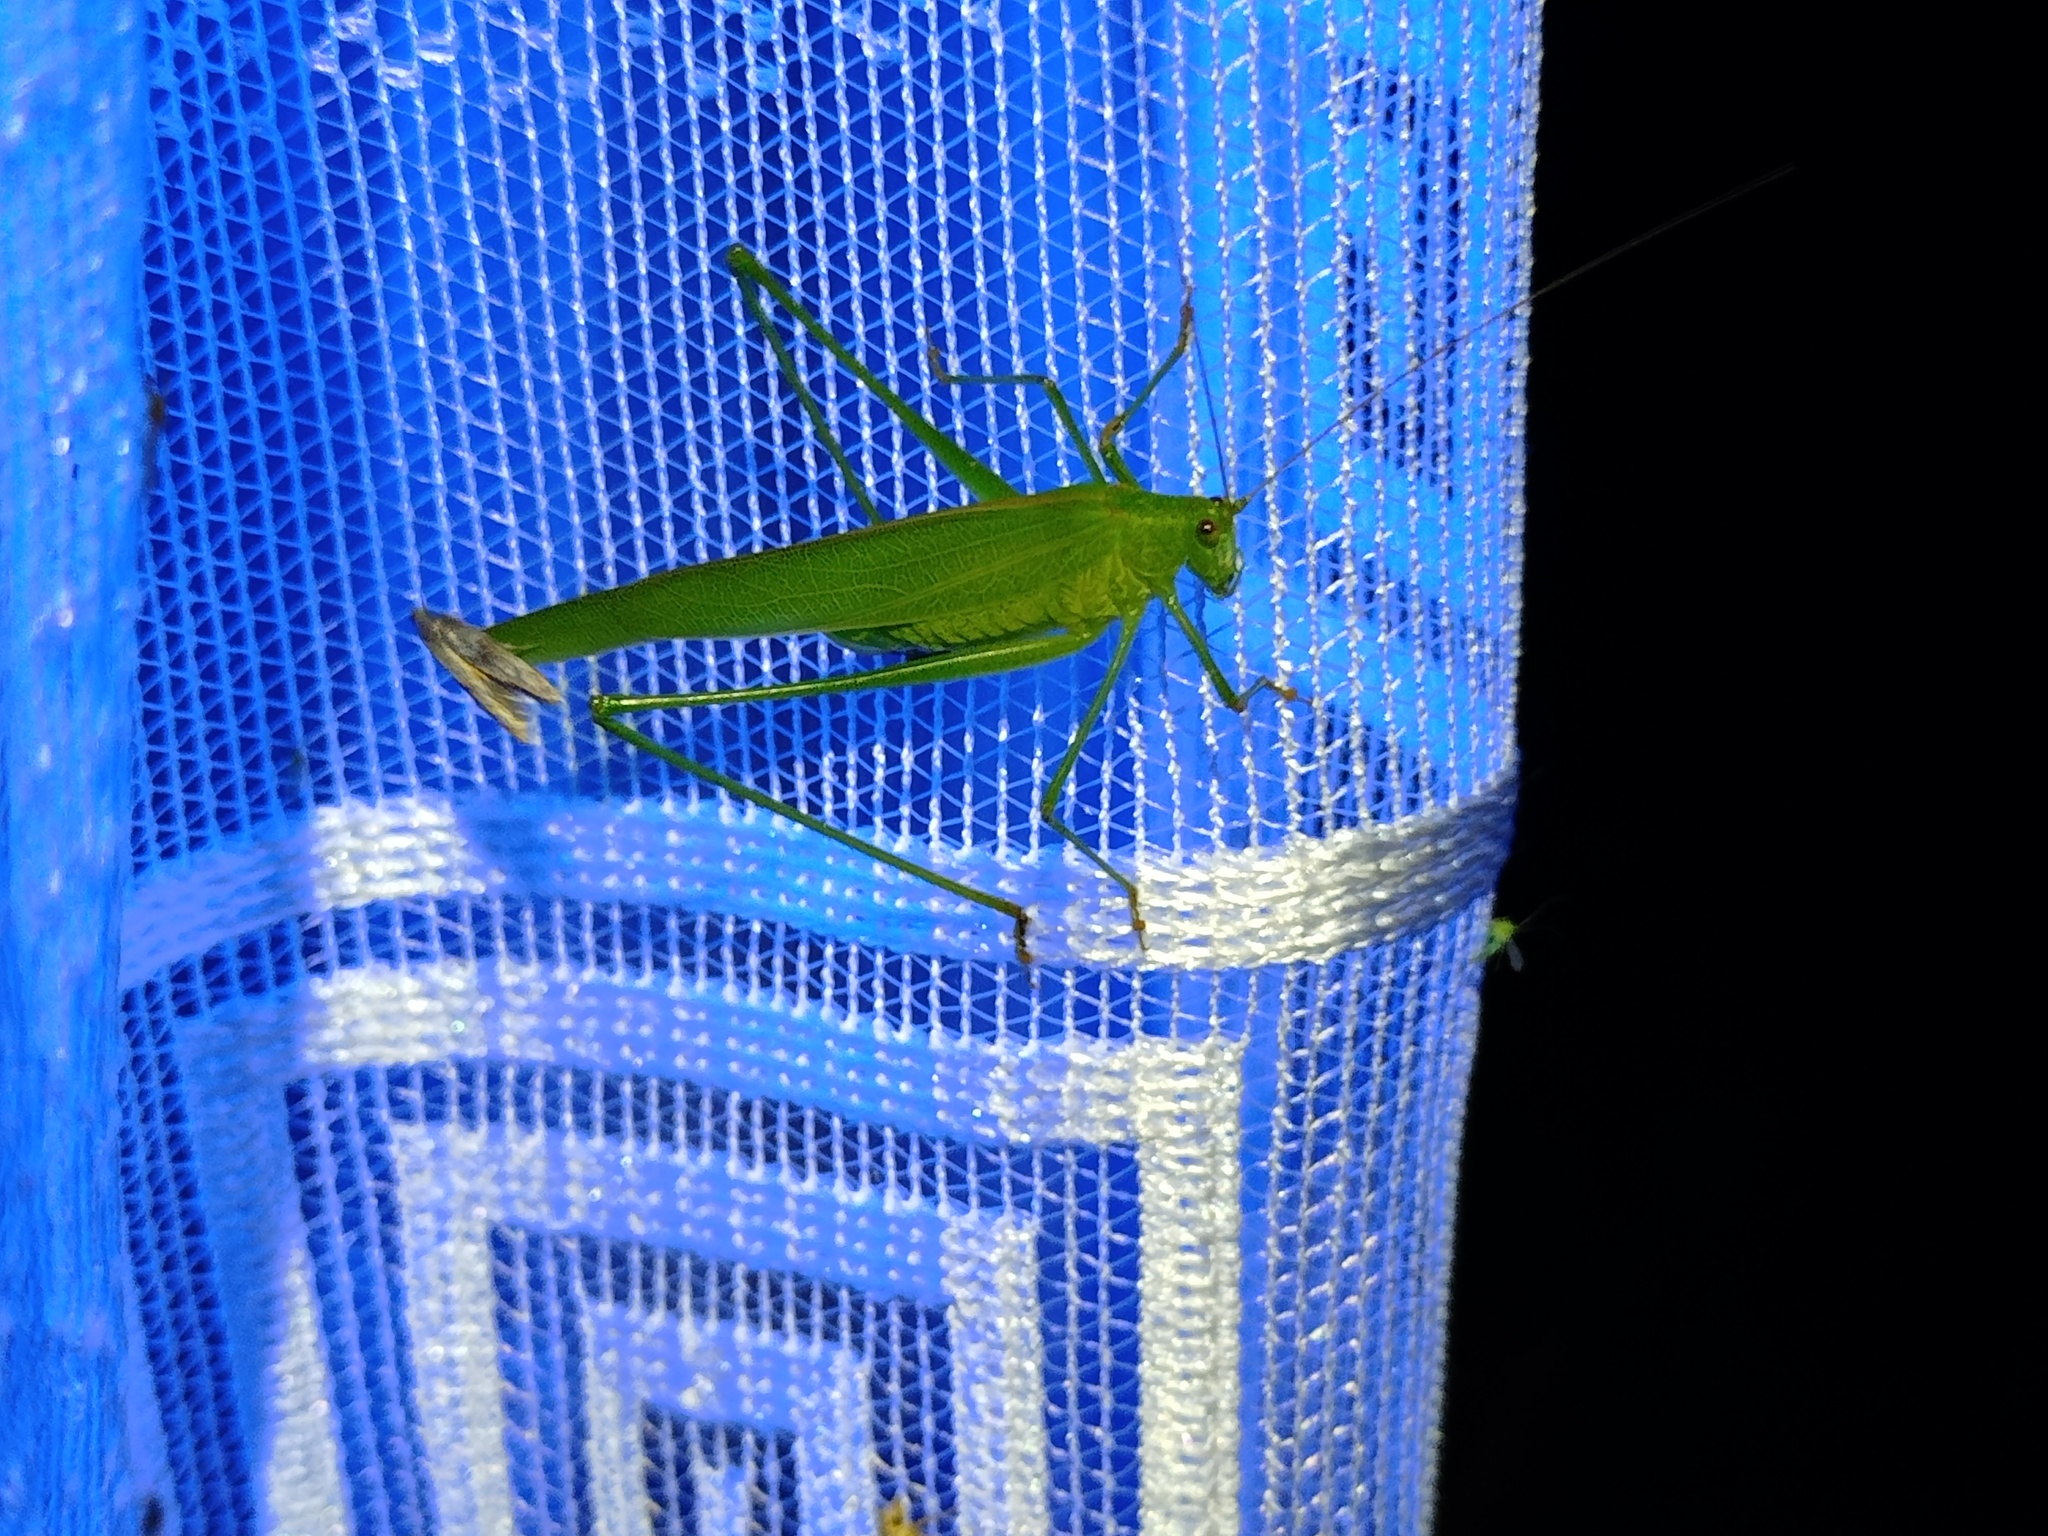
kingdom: Animalia
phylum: Arthropoda
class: Insecta
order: Orthoptera
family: Tettigoniidae
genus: Phaneroptera
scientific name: Phaneroptera falcata
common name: Sickle-bearing bush-cricket
